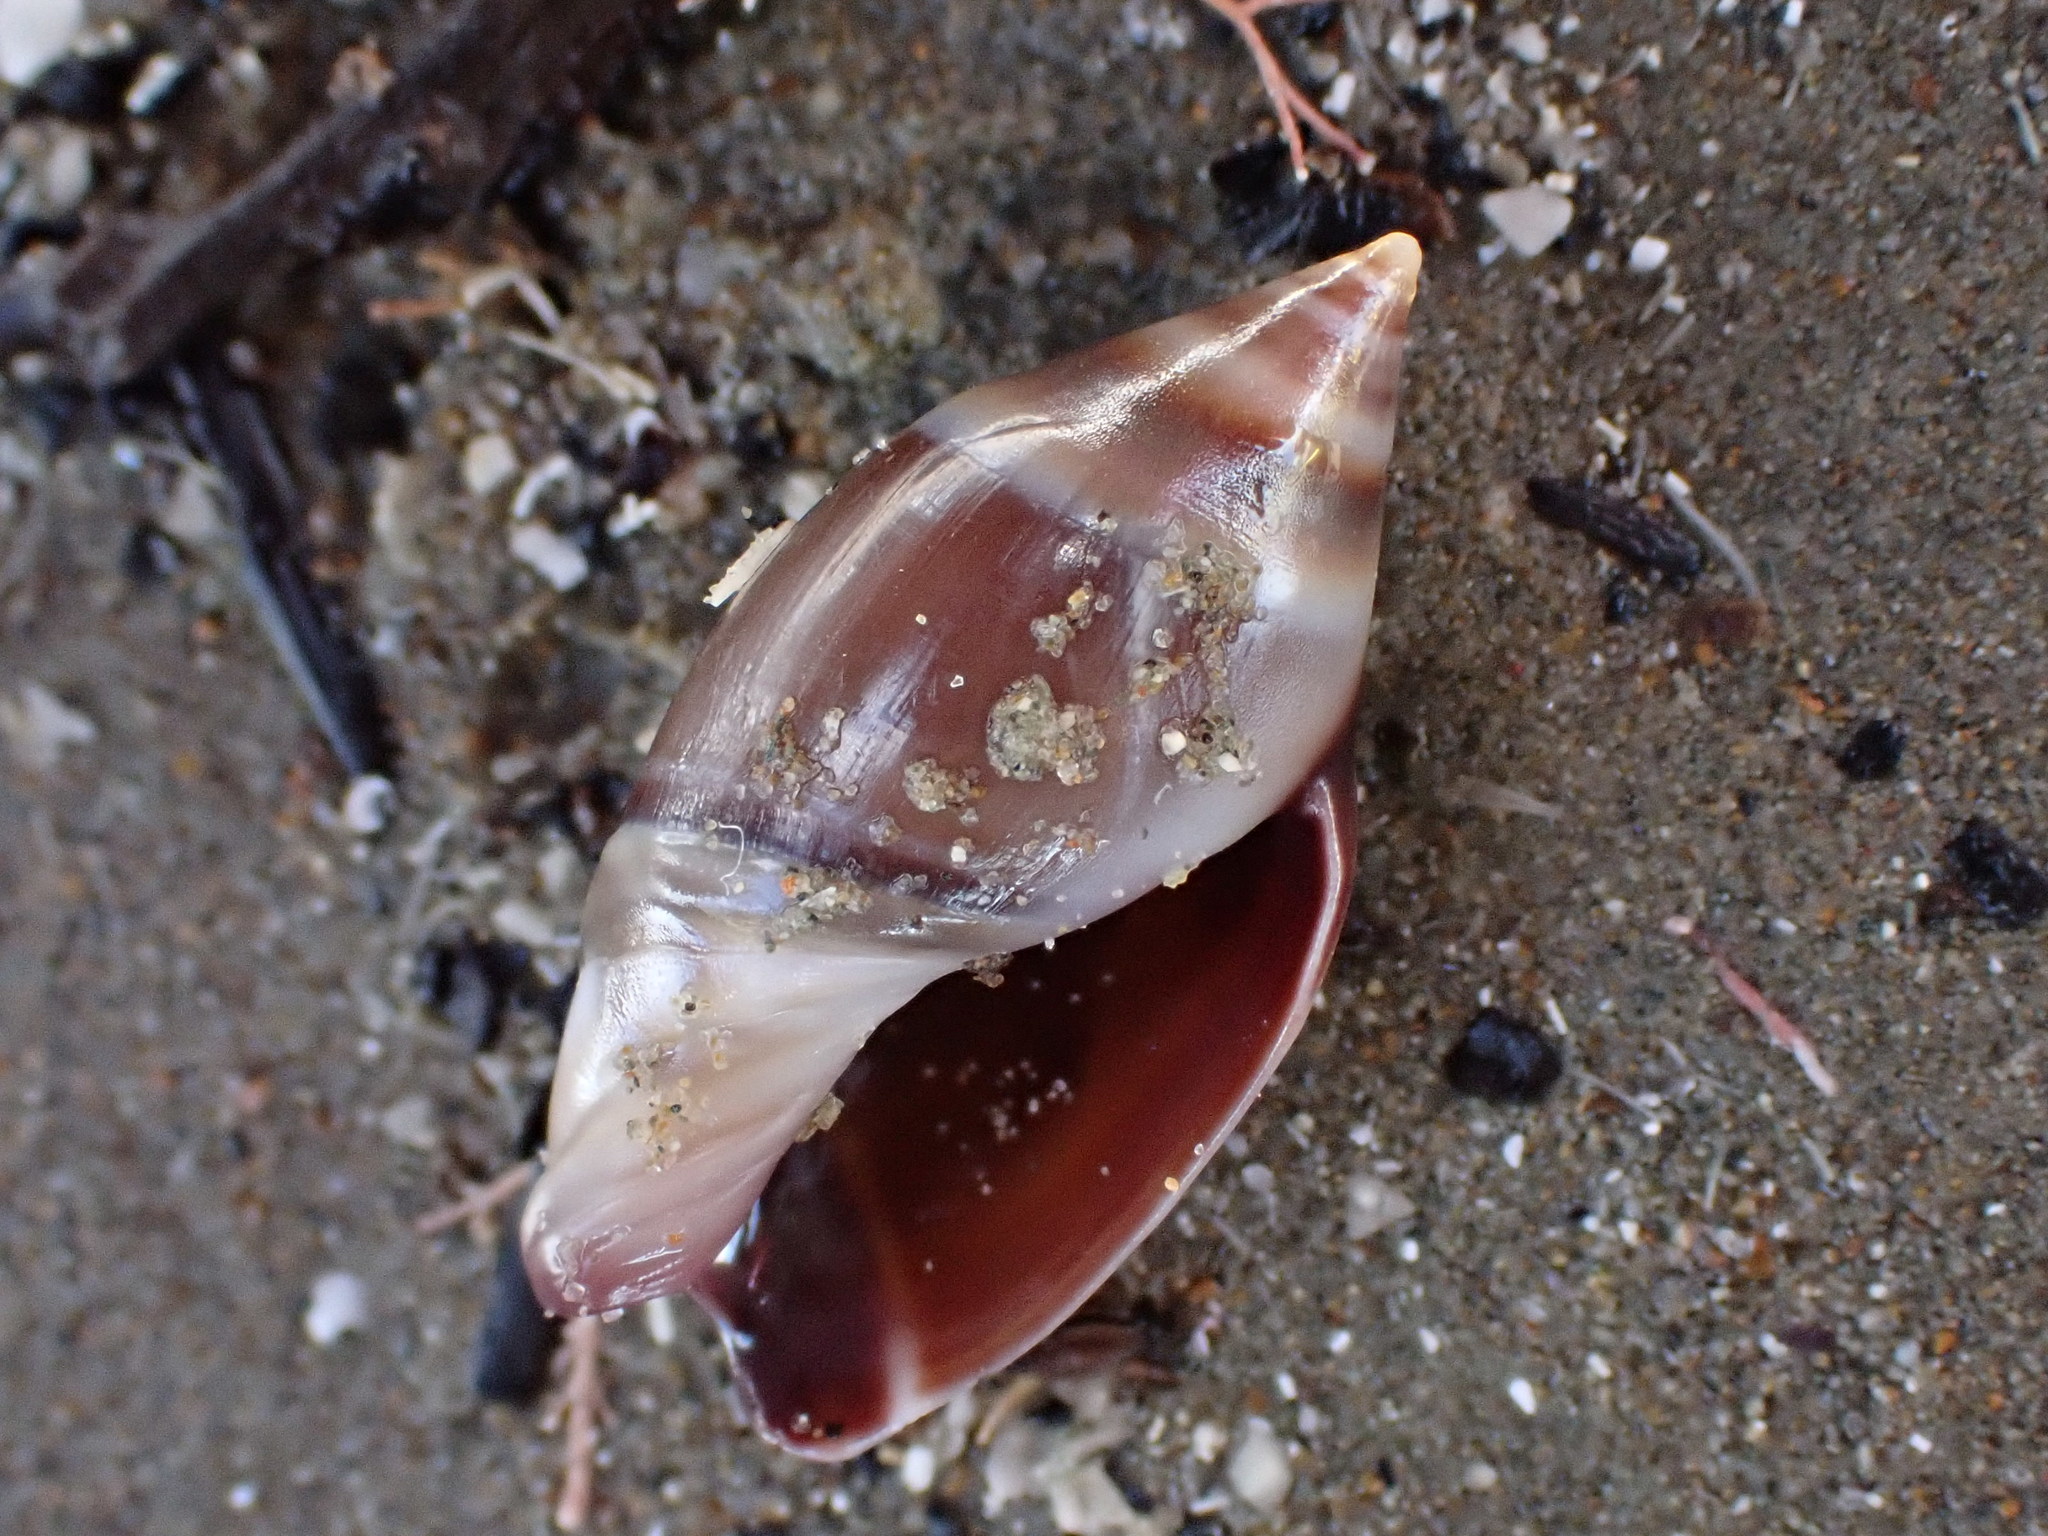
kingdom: Animalia
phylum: Mollusca
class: Gastropoda
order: Neogastropoda
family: Ancillariidae
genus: Amalda
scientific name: Amalda australis
